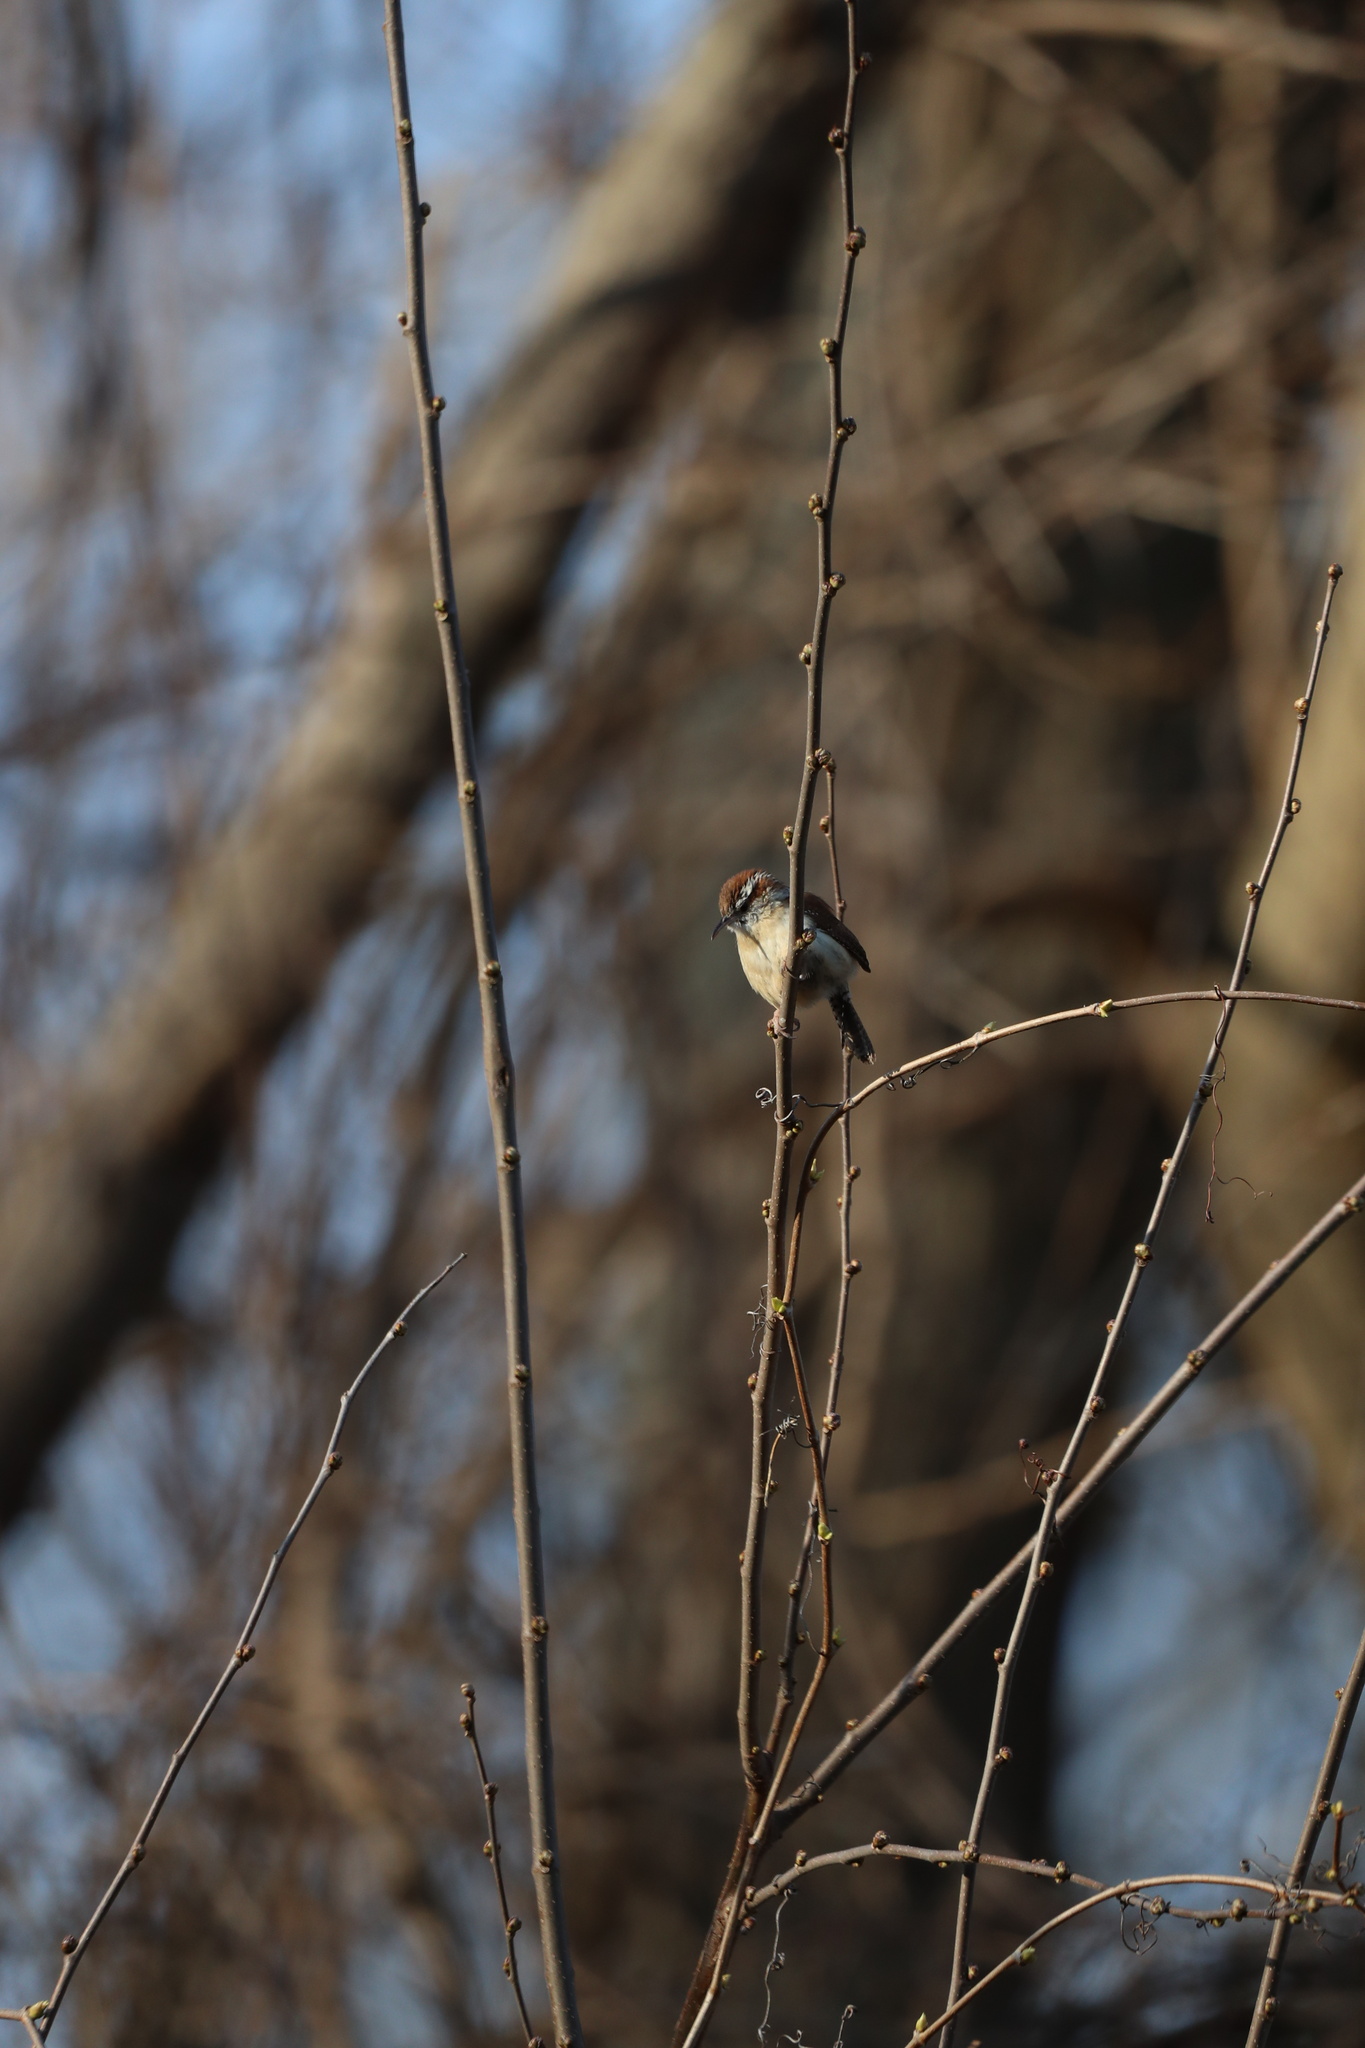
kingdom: Animalia
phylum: Chordata
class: Aves
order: Passeriformes
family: Troglodytidae
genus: Thryothorus
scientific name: Thryothorus ludovicianus
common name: Carolina wren
